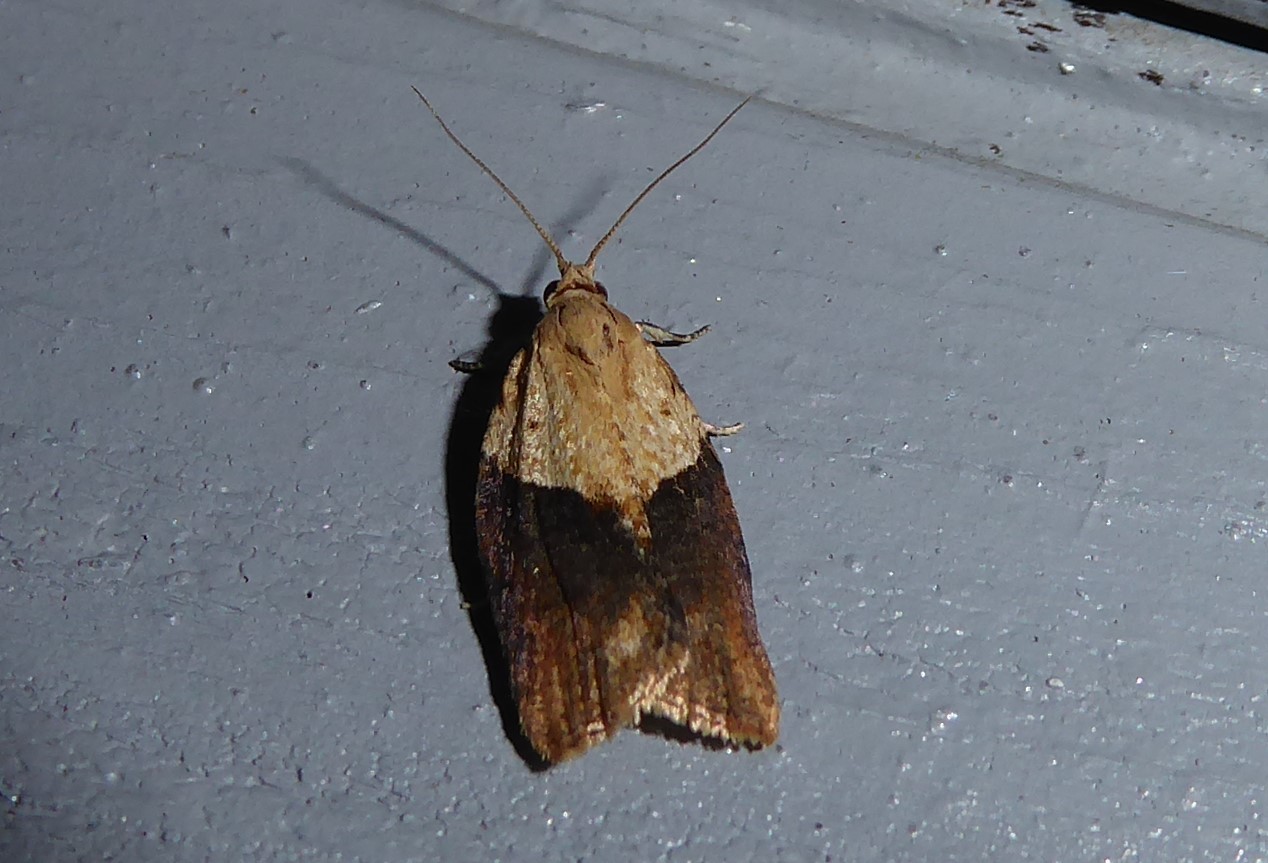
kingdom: Animalia
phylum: Arthropoda
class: Insecta
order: Lepidoptera
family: Tortricidae
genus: Epiphyas
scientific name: Epiphyas postvittana
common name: Light brown apple moth
